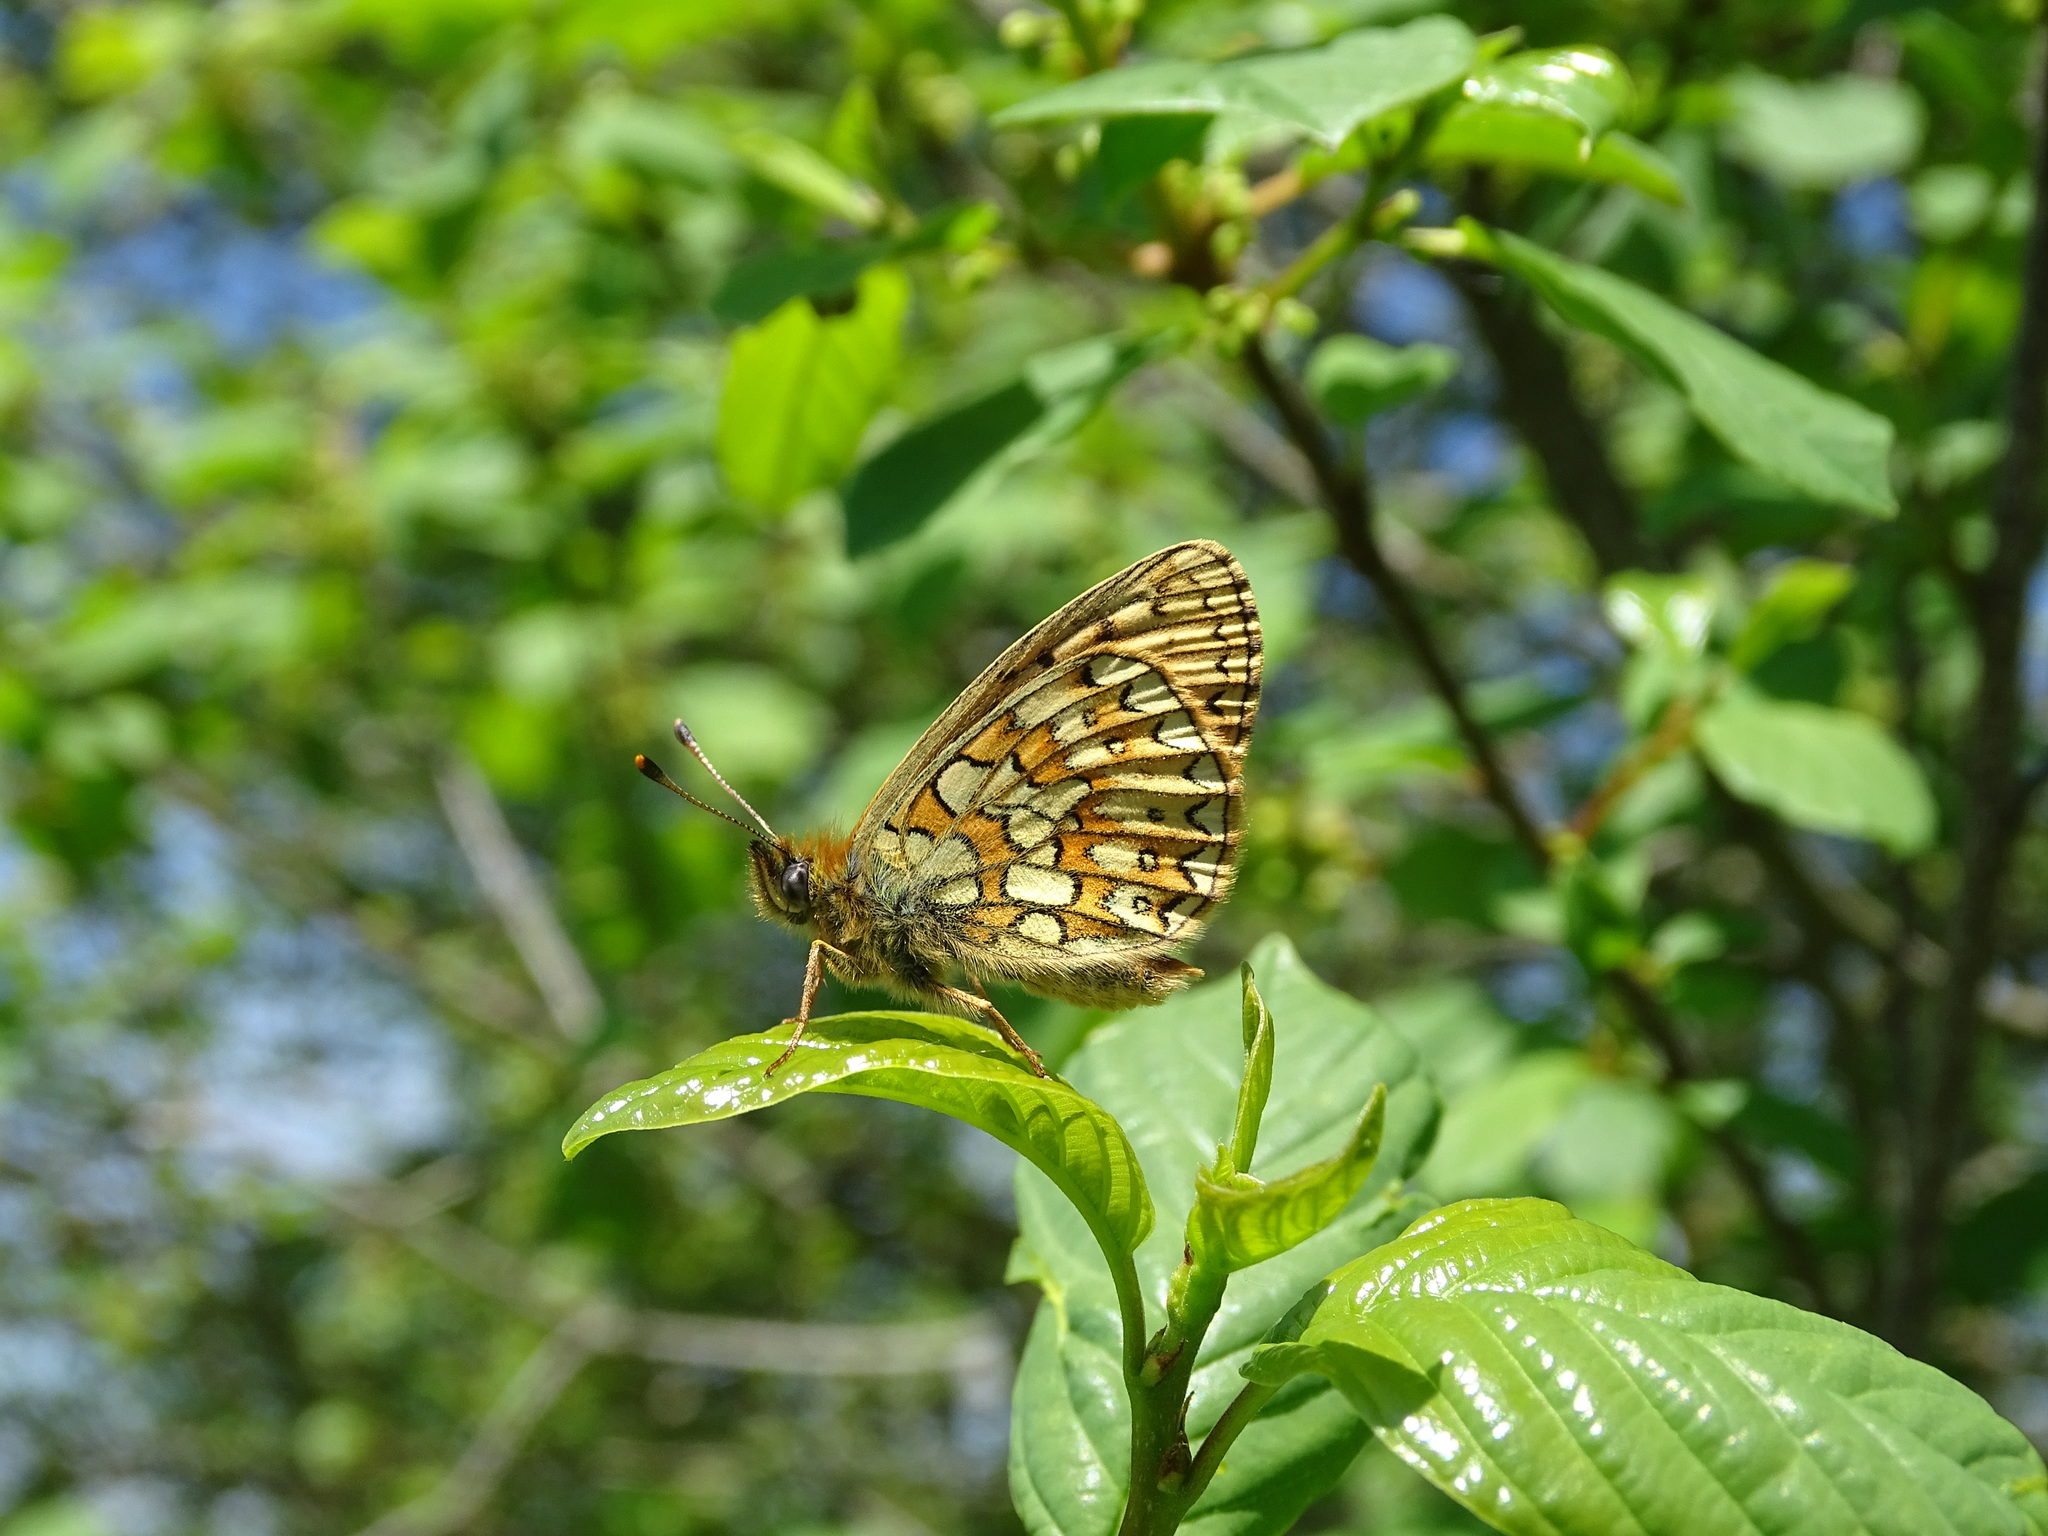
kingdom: Animalia
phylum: Arthropoda
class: Insecta
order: Lepidoptera
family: Nymphalidae
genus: Boloria
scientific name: Boloria eunomia
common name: Bog fritillary
